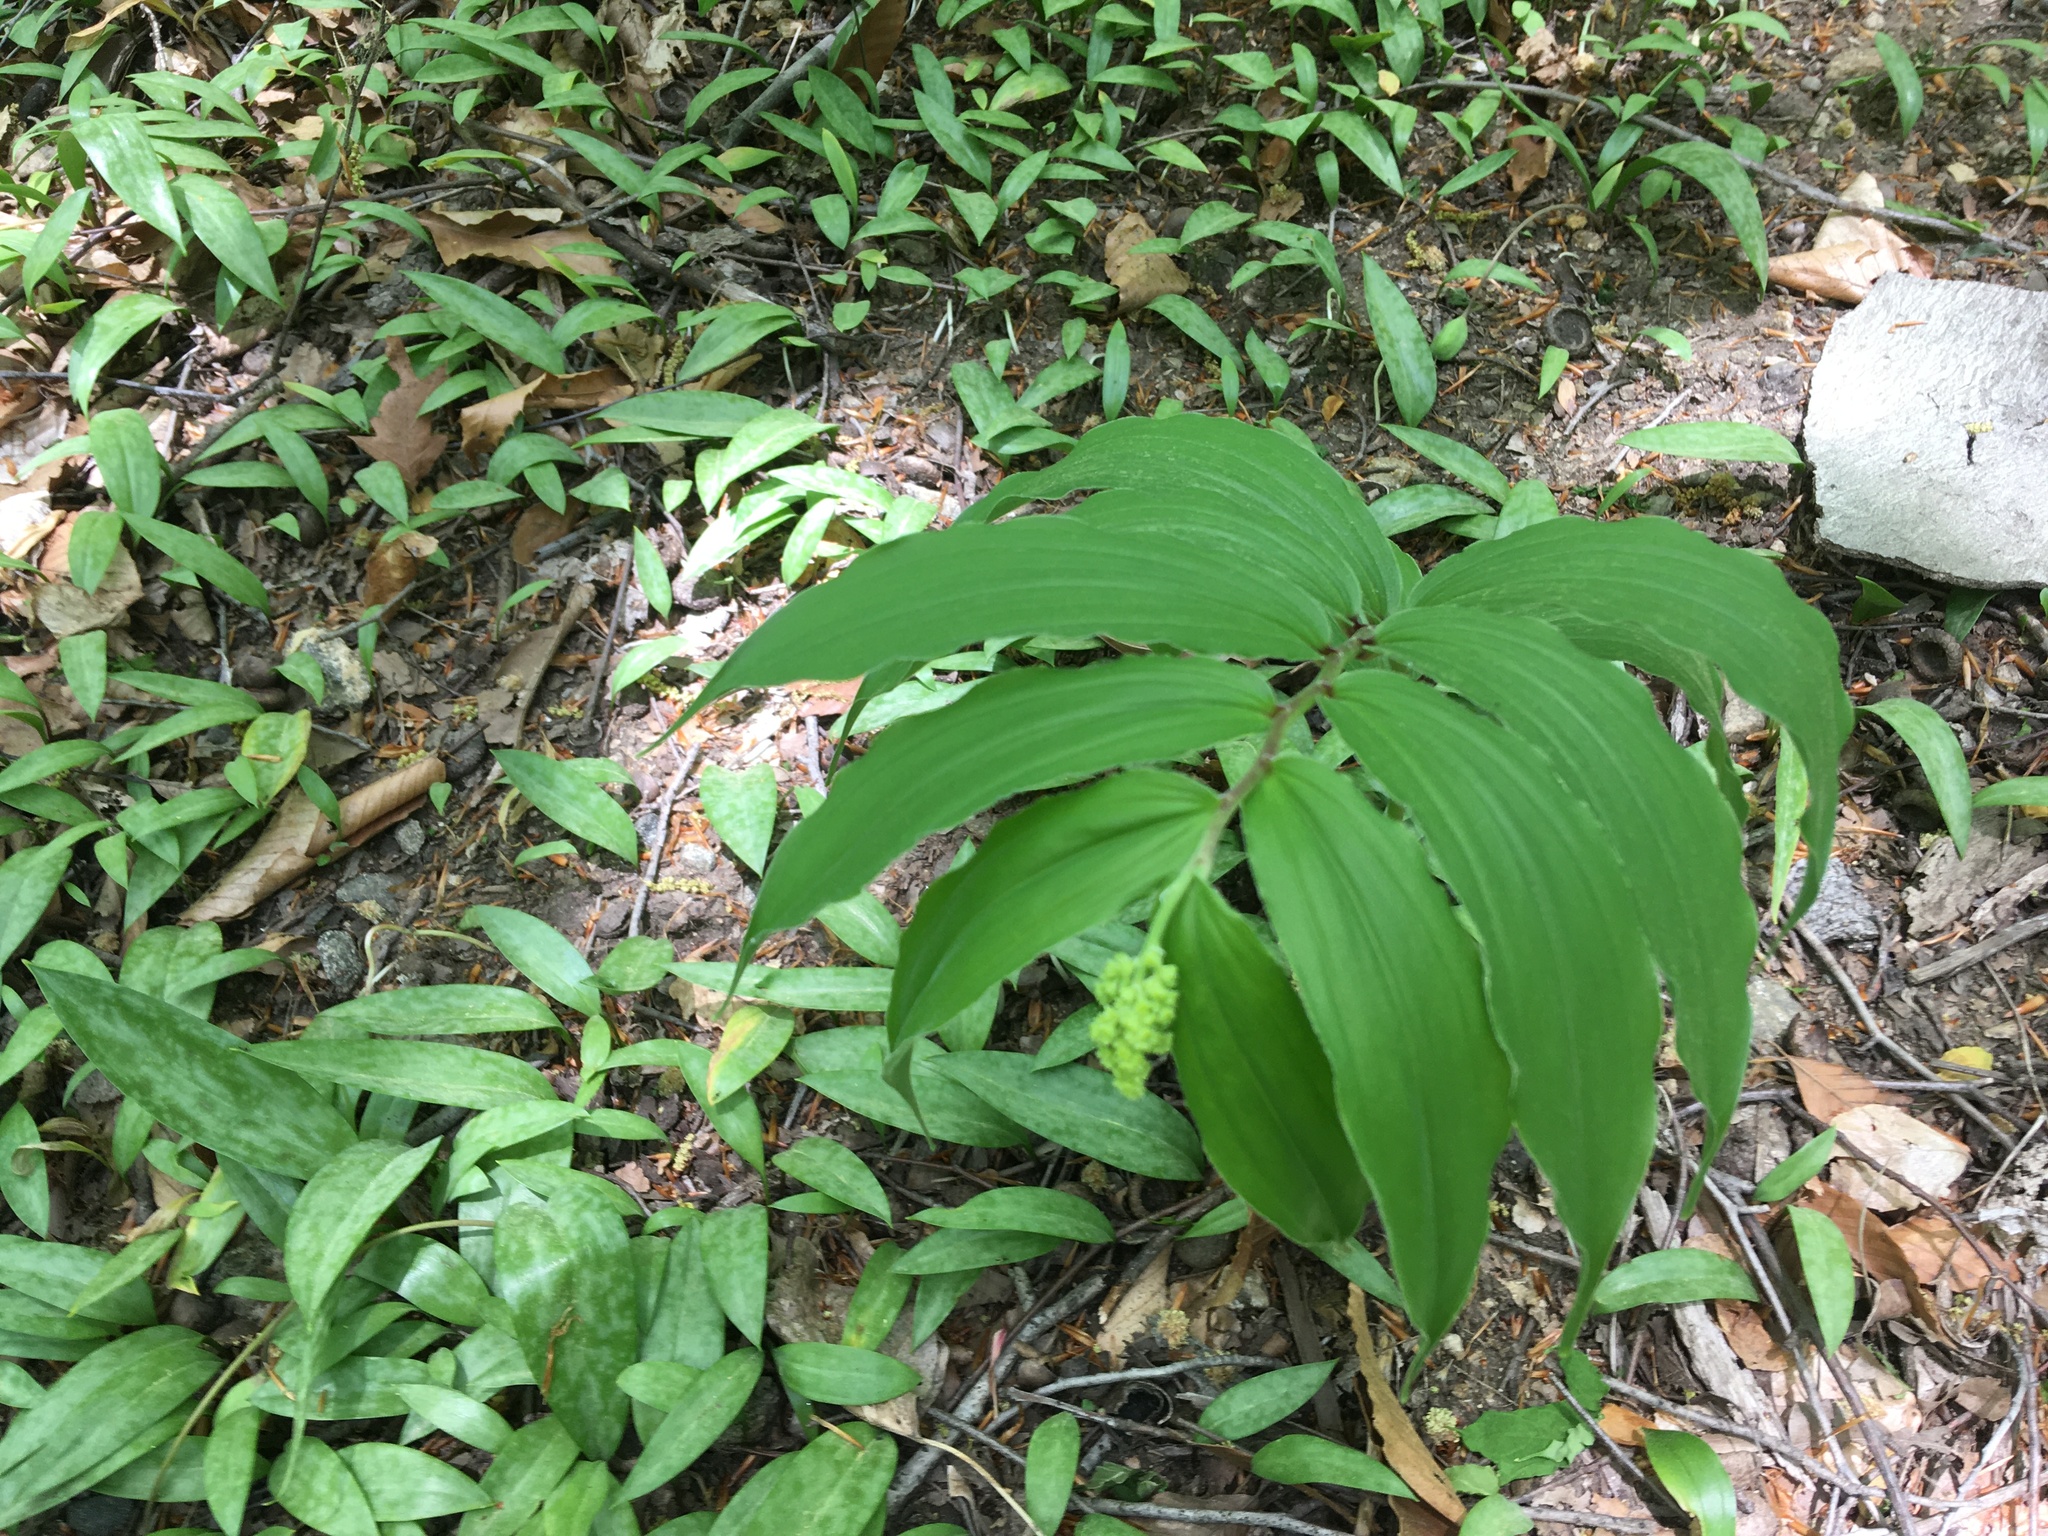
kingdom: Plantae
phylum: Tracheophyta
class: Liliopsida
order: Asparagales
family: Asparagaceae
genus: Maianthemum
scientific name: Maianthemum racemosum
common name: False spikenard
